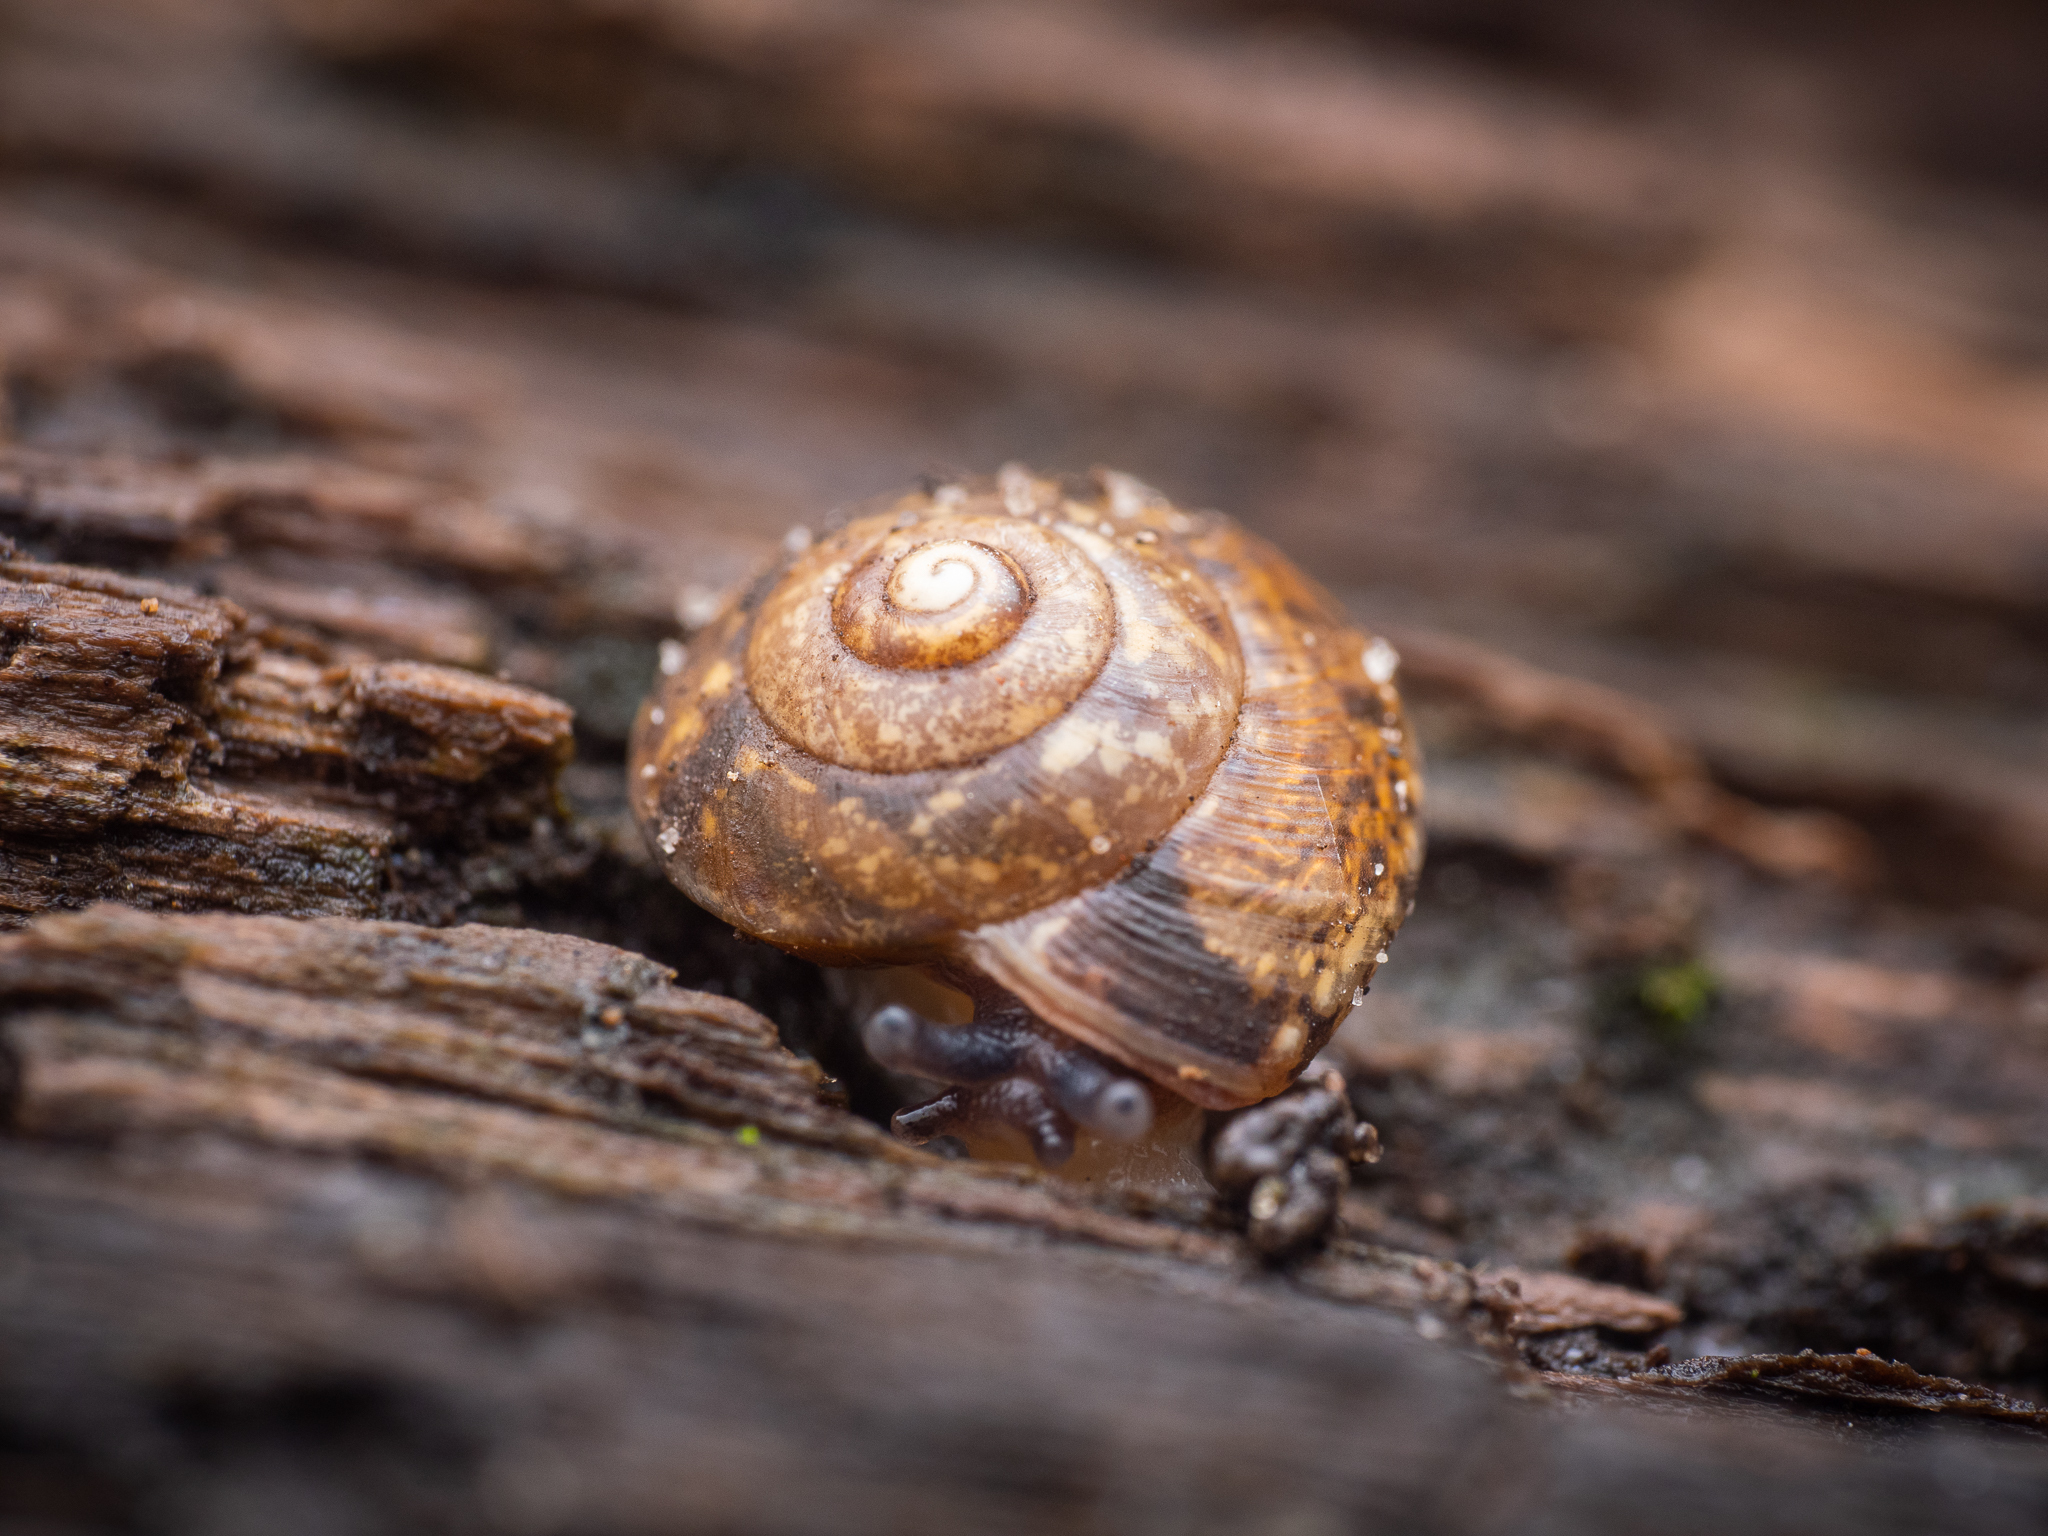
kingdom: Animalia
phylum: Mollusca
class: Gastropoda
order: Stylommatophora
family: Hygromiidae
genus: Hygromia
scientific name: Hygromia cinctella
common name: Girdled snail
